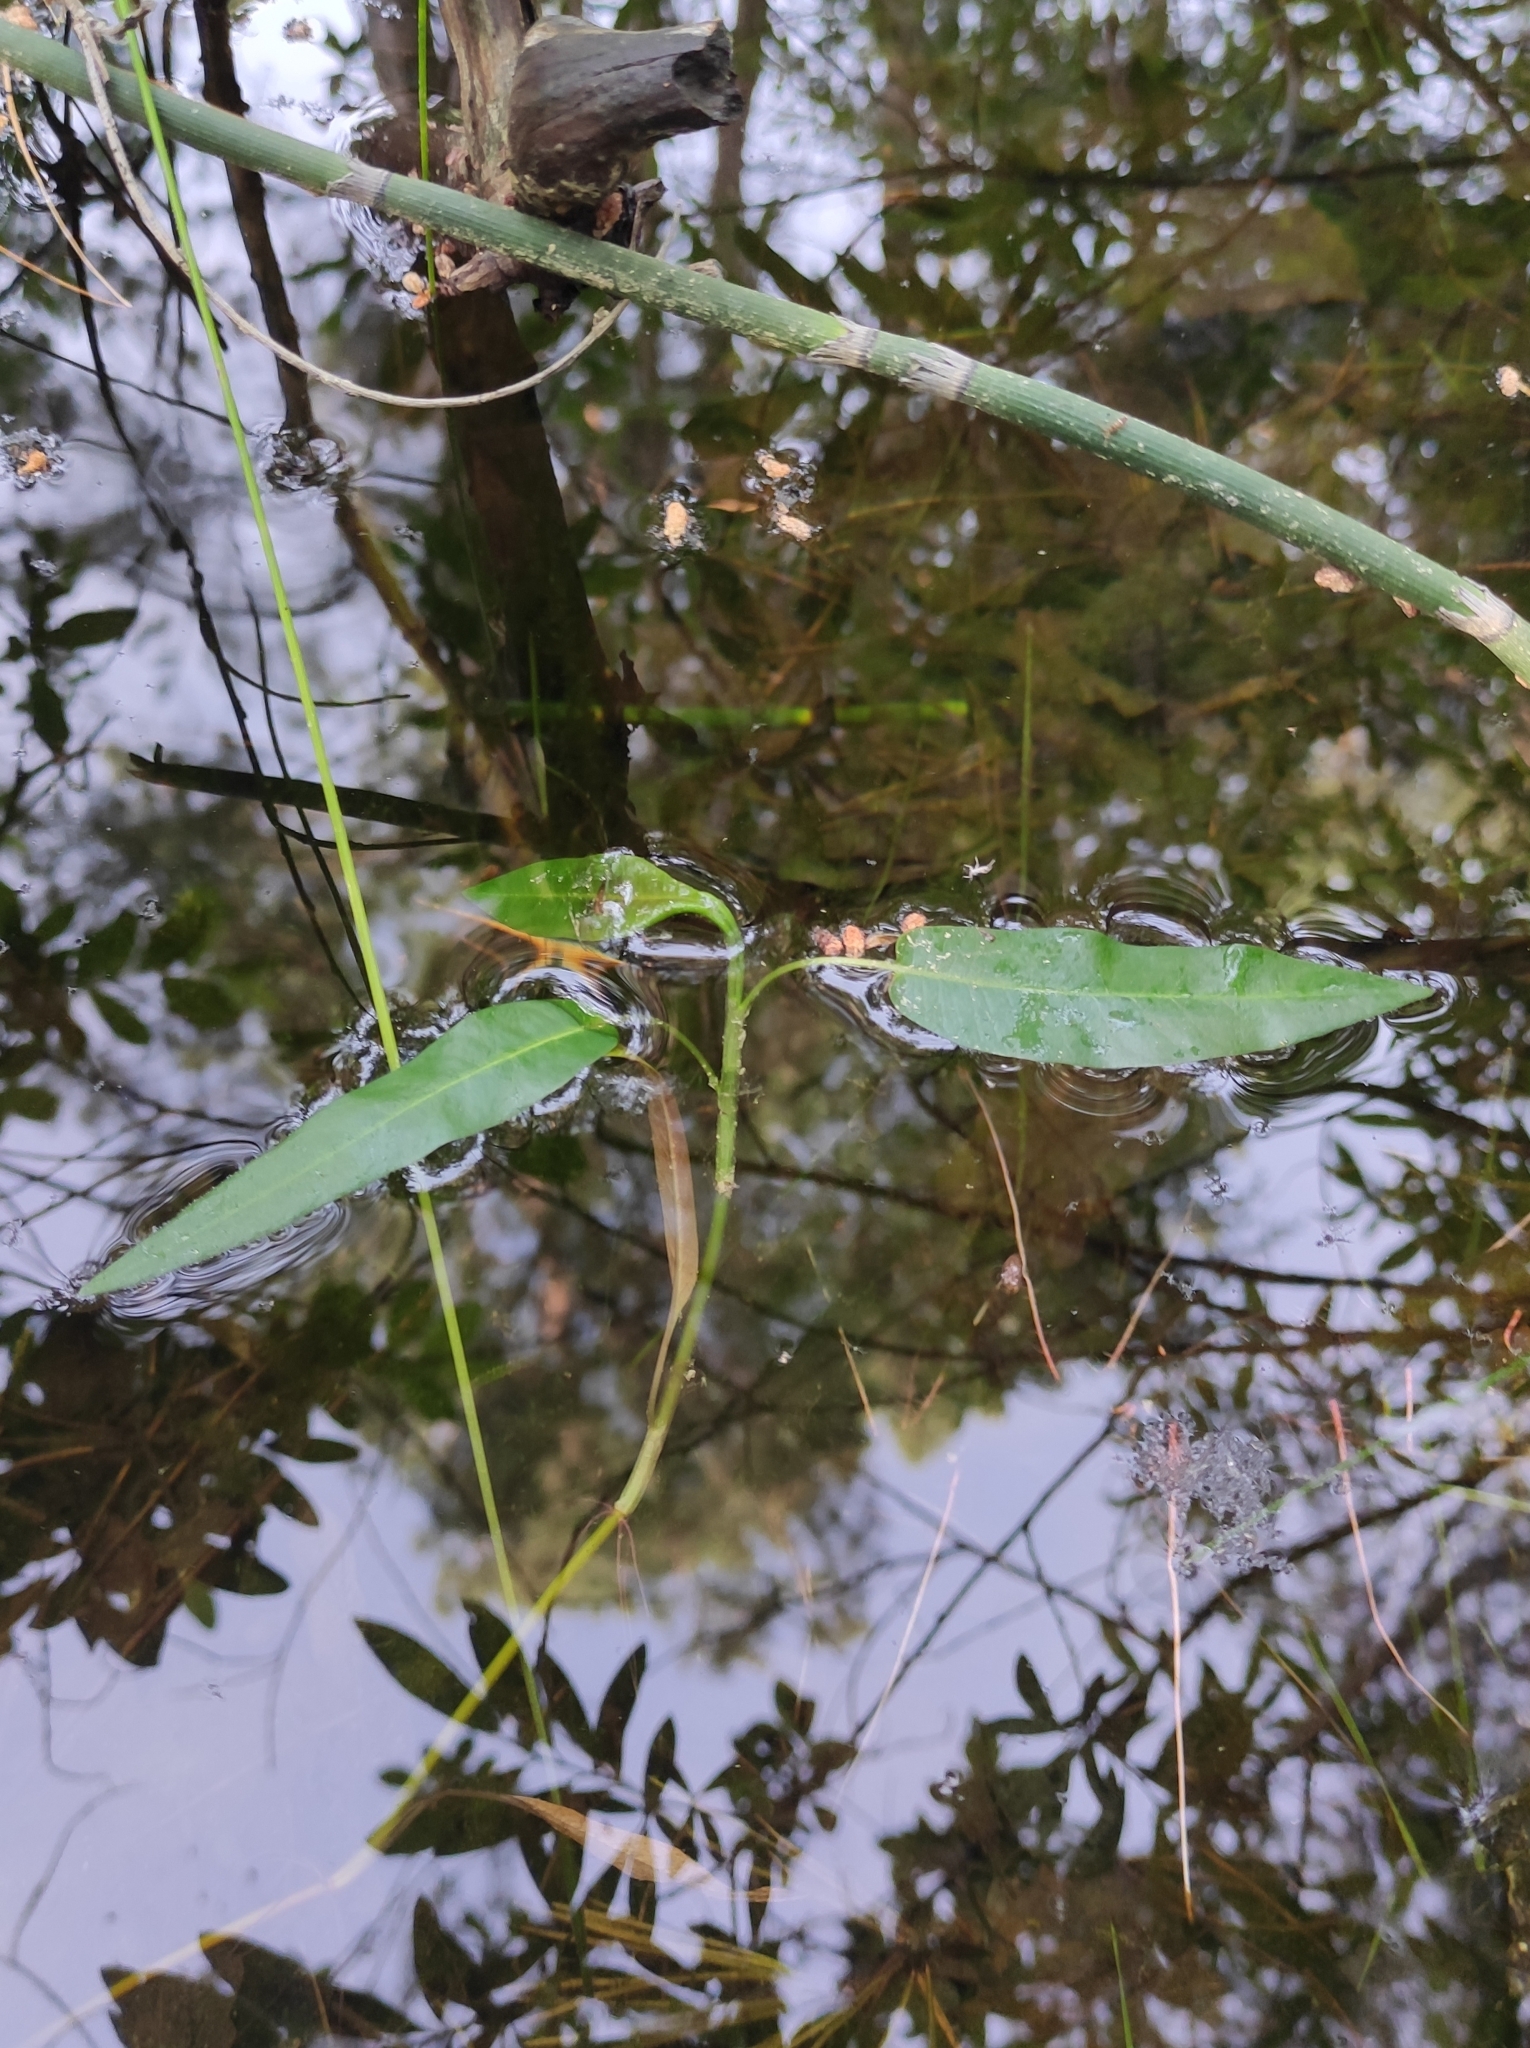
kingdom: Plantae
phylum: Tracheophyta
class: Magnoliopsida
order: Caryophyllales
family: Polygonaceae
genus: Persicaria
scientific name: Persicaria amphibia
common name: Amphibious bistort
